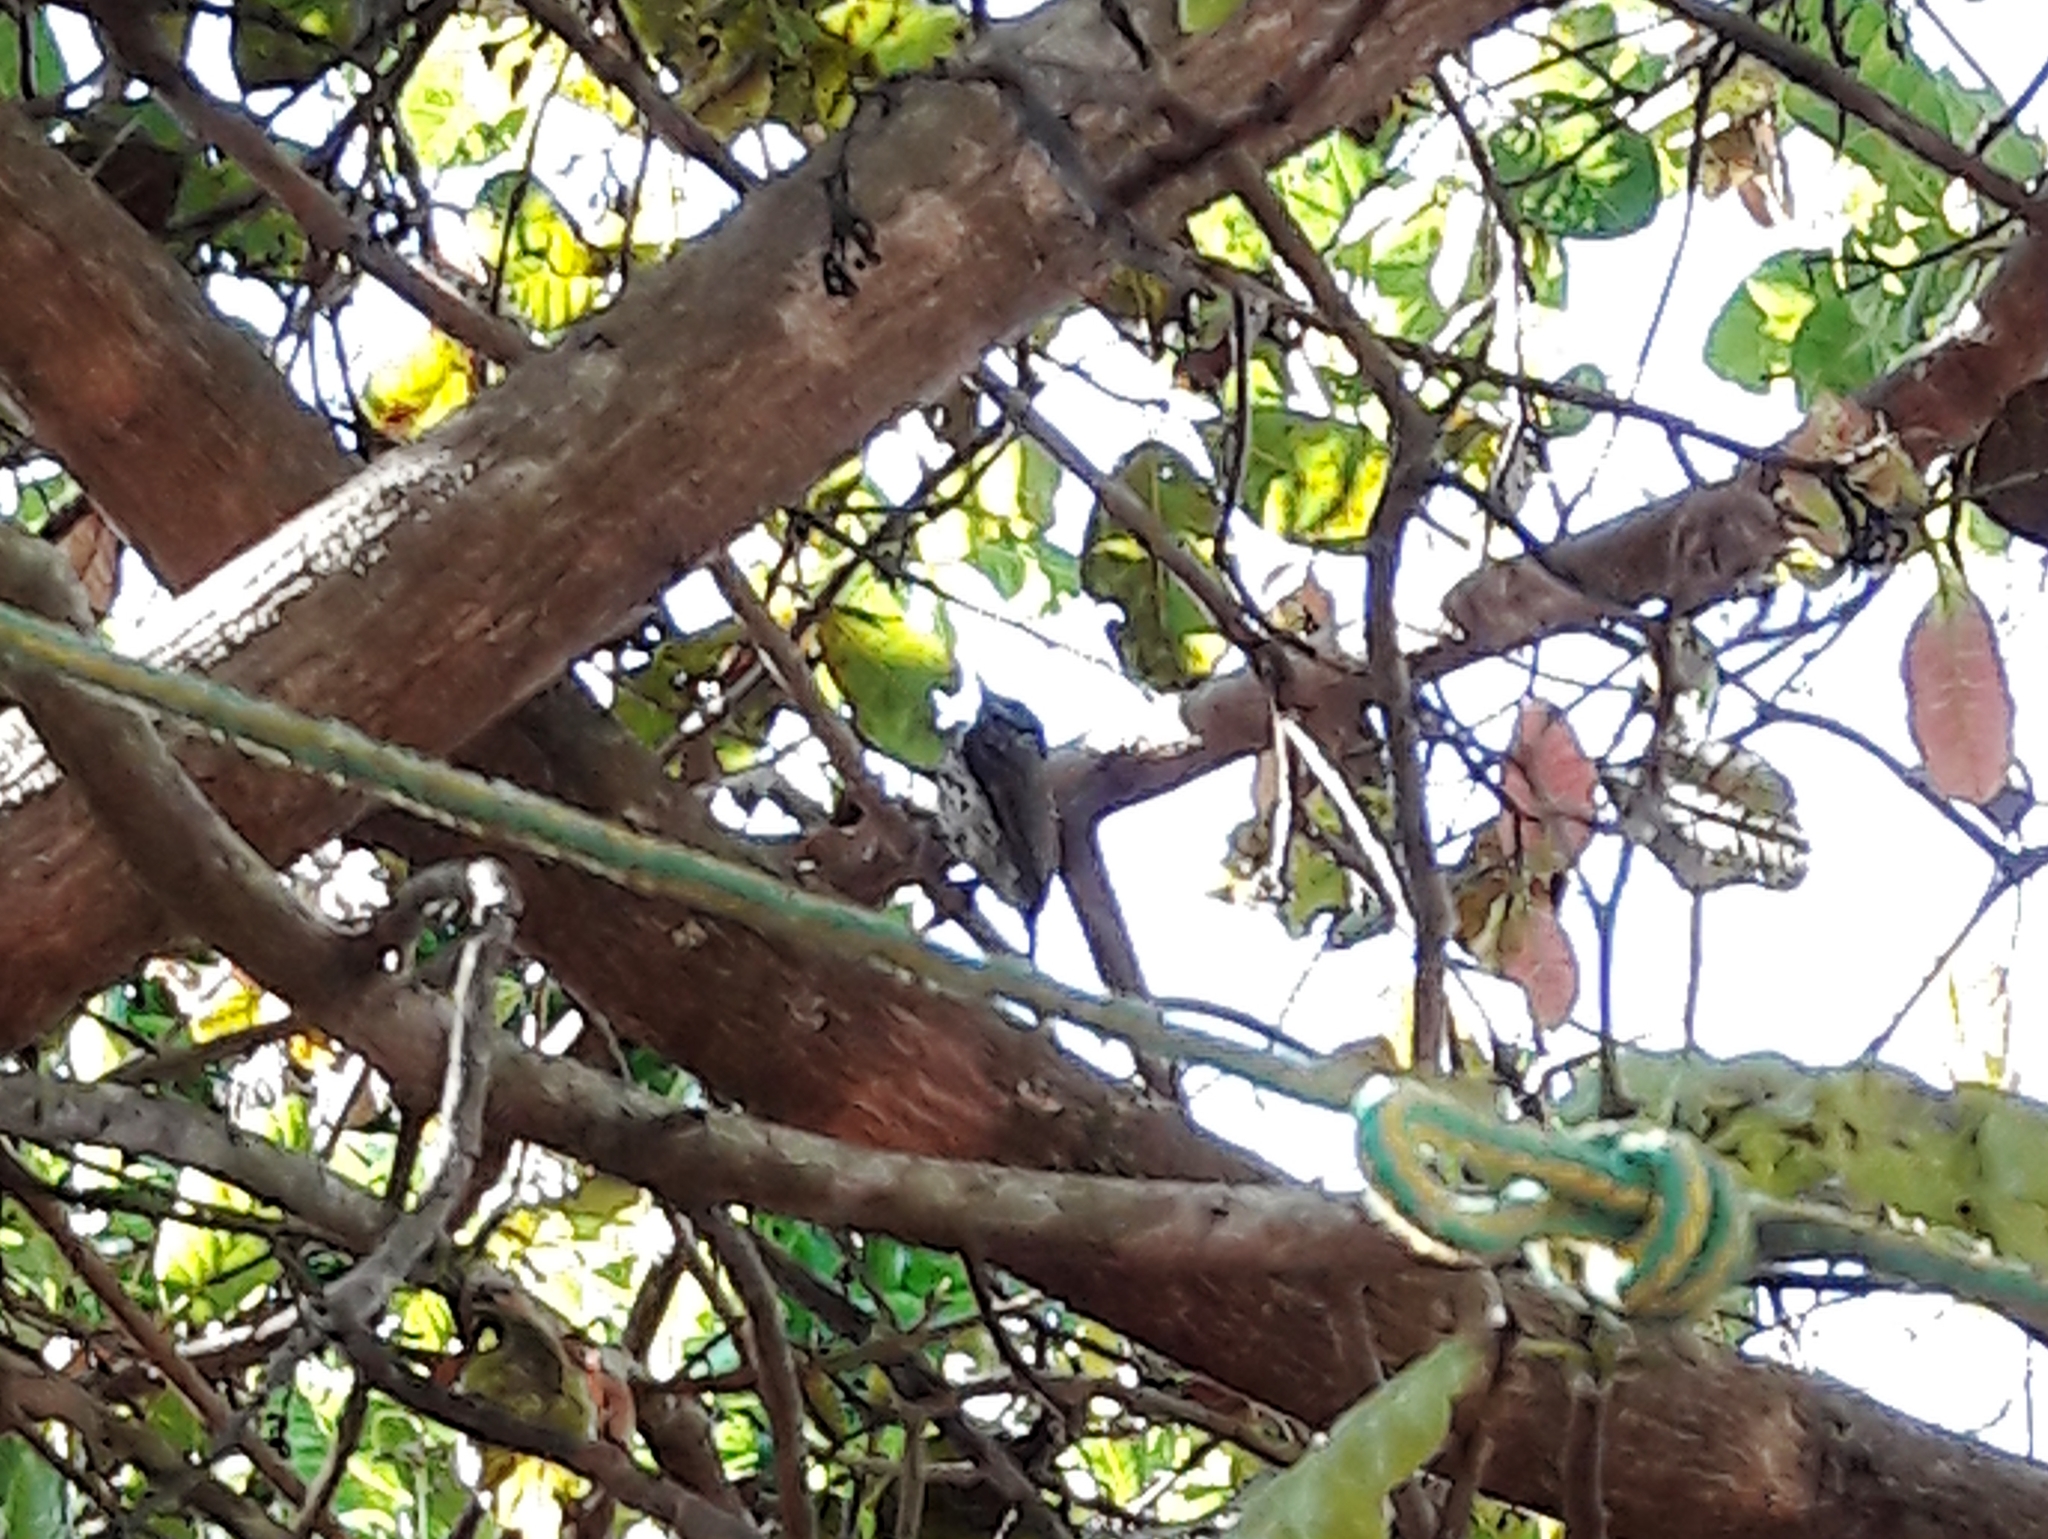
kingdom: Animalia
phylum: Chordata
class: Aves
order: Piciformes
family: Picidae
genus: Picumnus
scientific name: Picumnus albosquamatus
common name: White-wedged piculet
